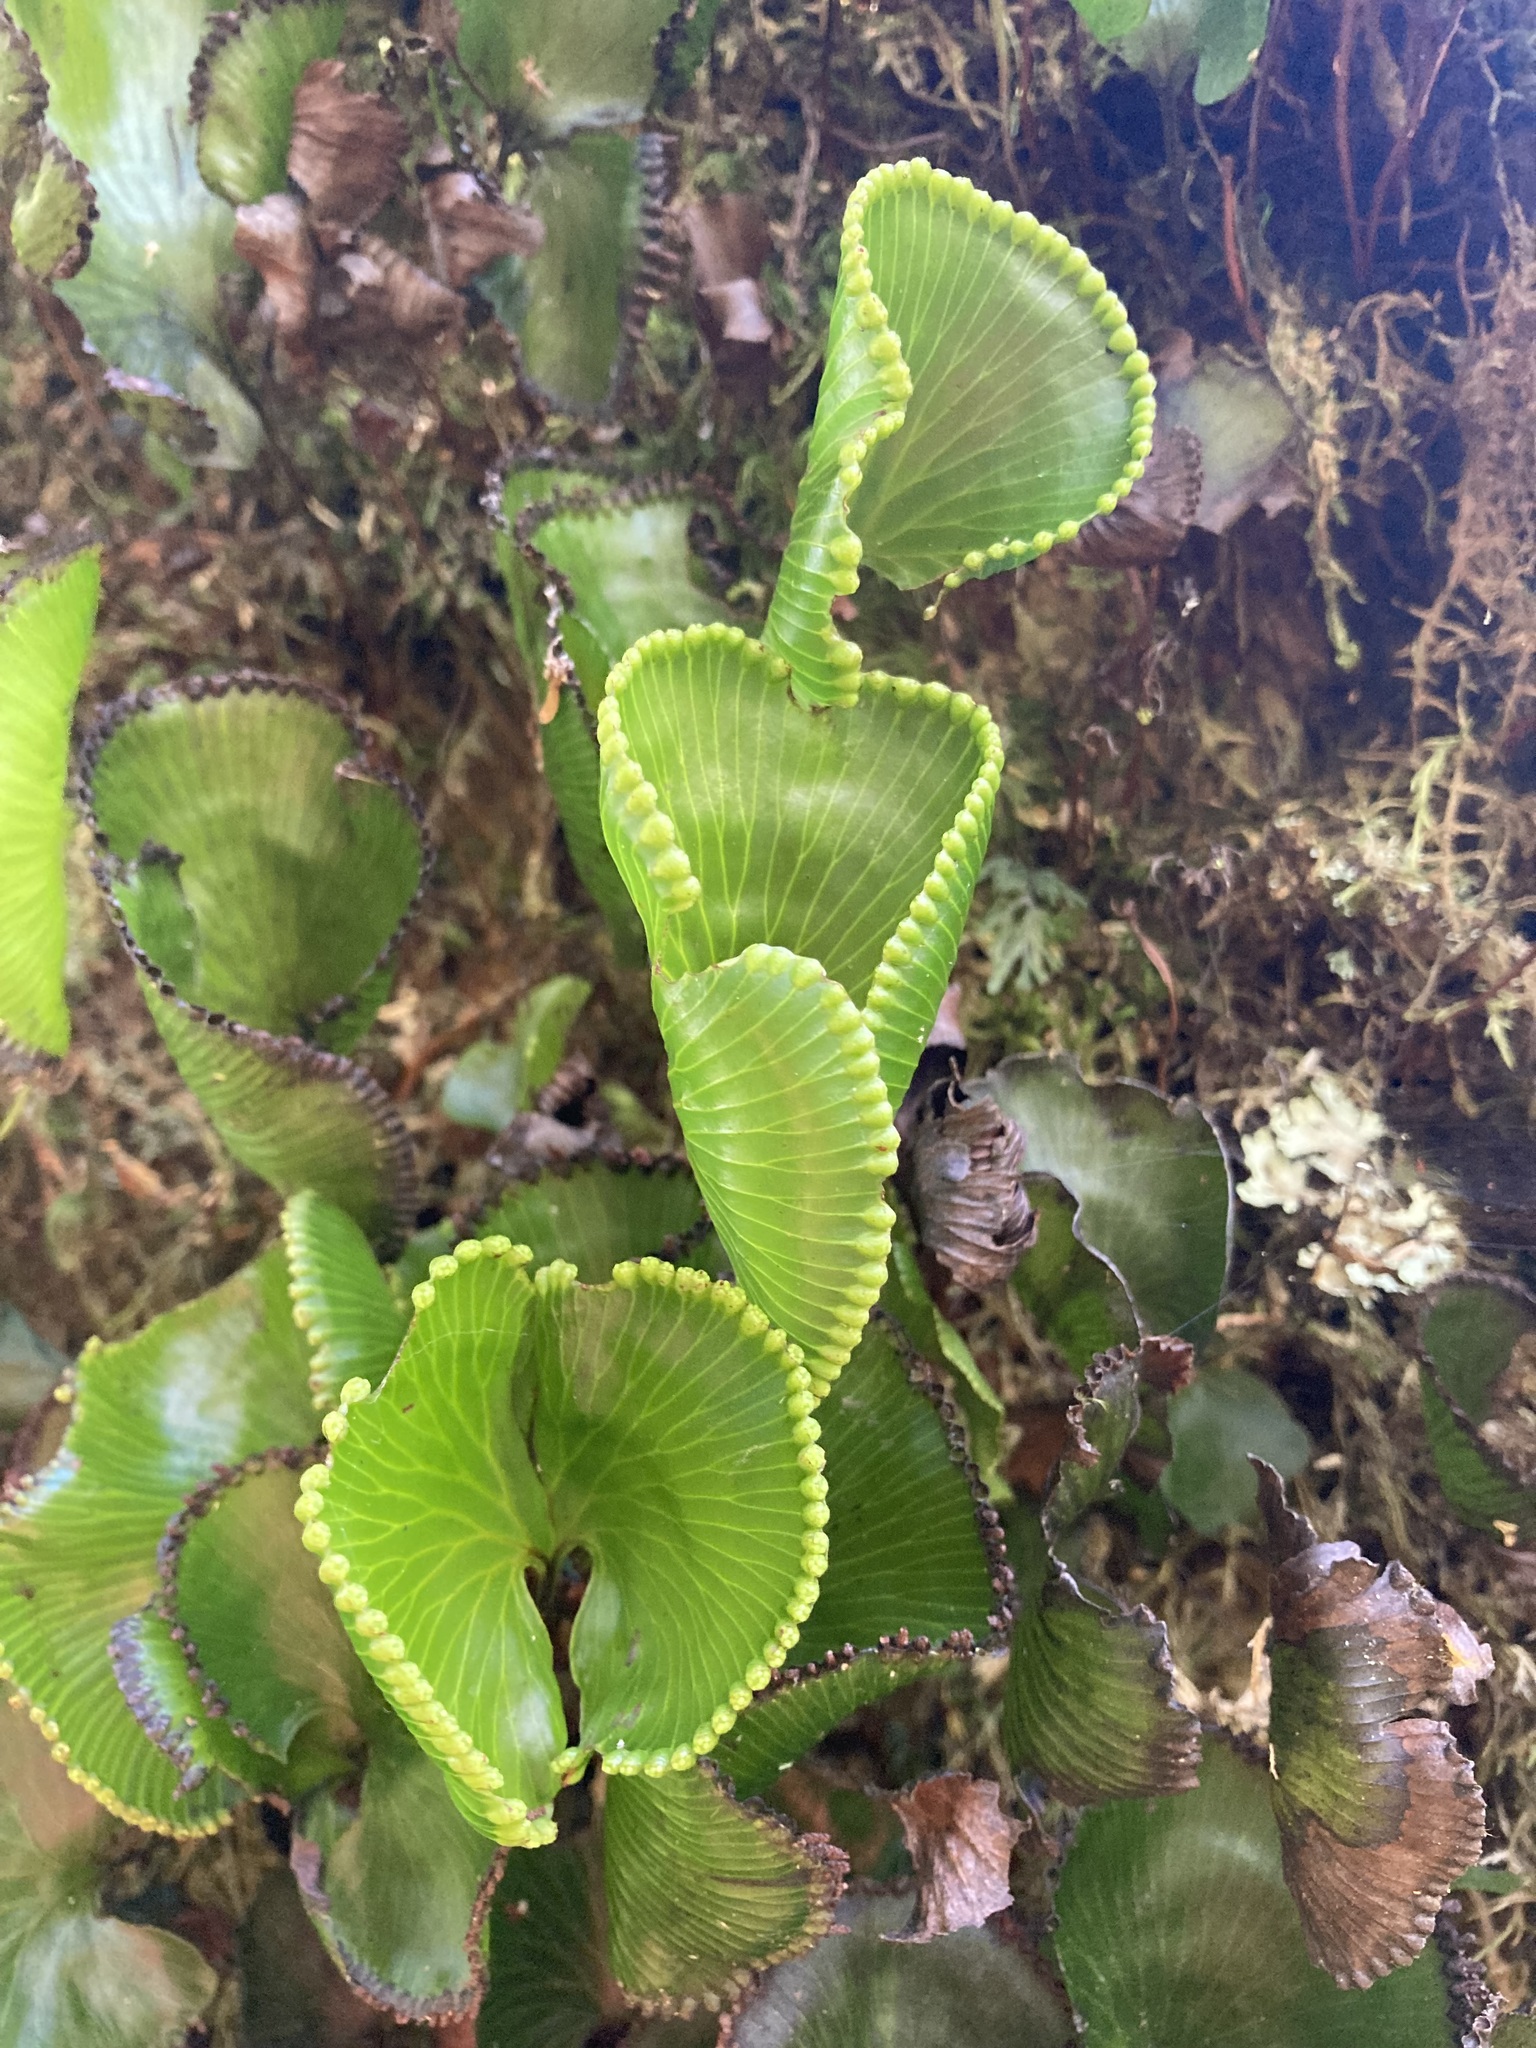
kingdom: Plantae
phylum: Tracheophyta
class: Polypodiopsida
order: Hymenophyllales
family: Hymenophyllaceae
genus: Hymenophyllum
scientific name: Hymenophyllum nephrophyllum
